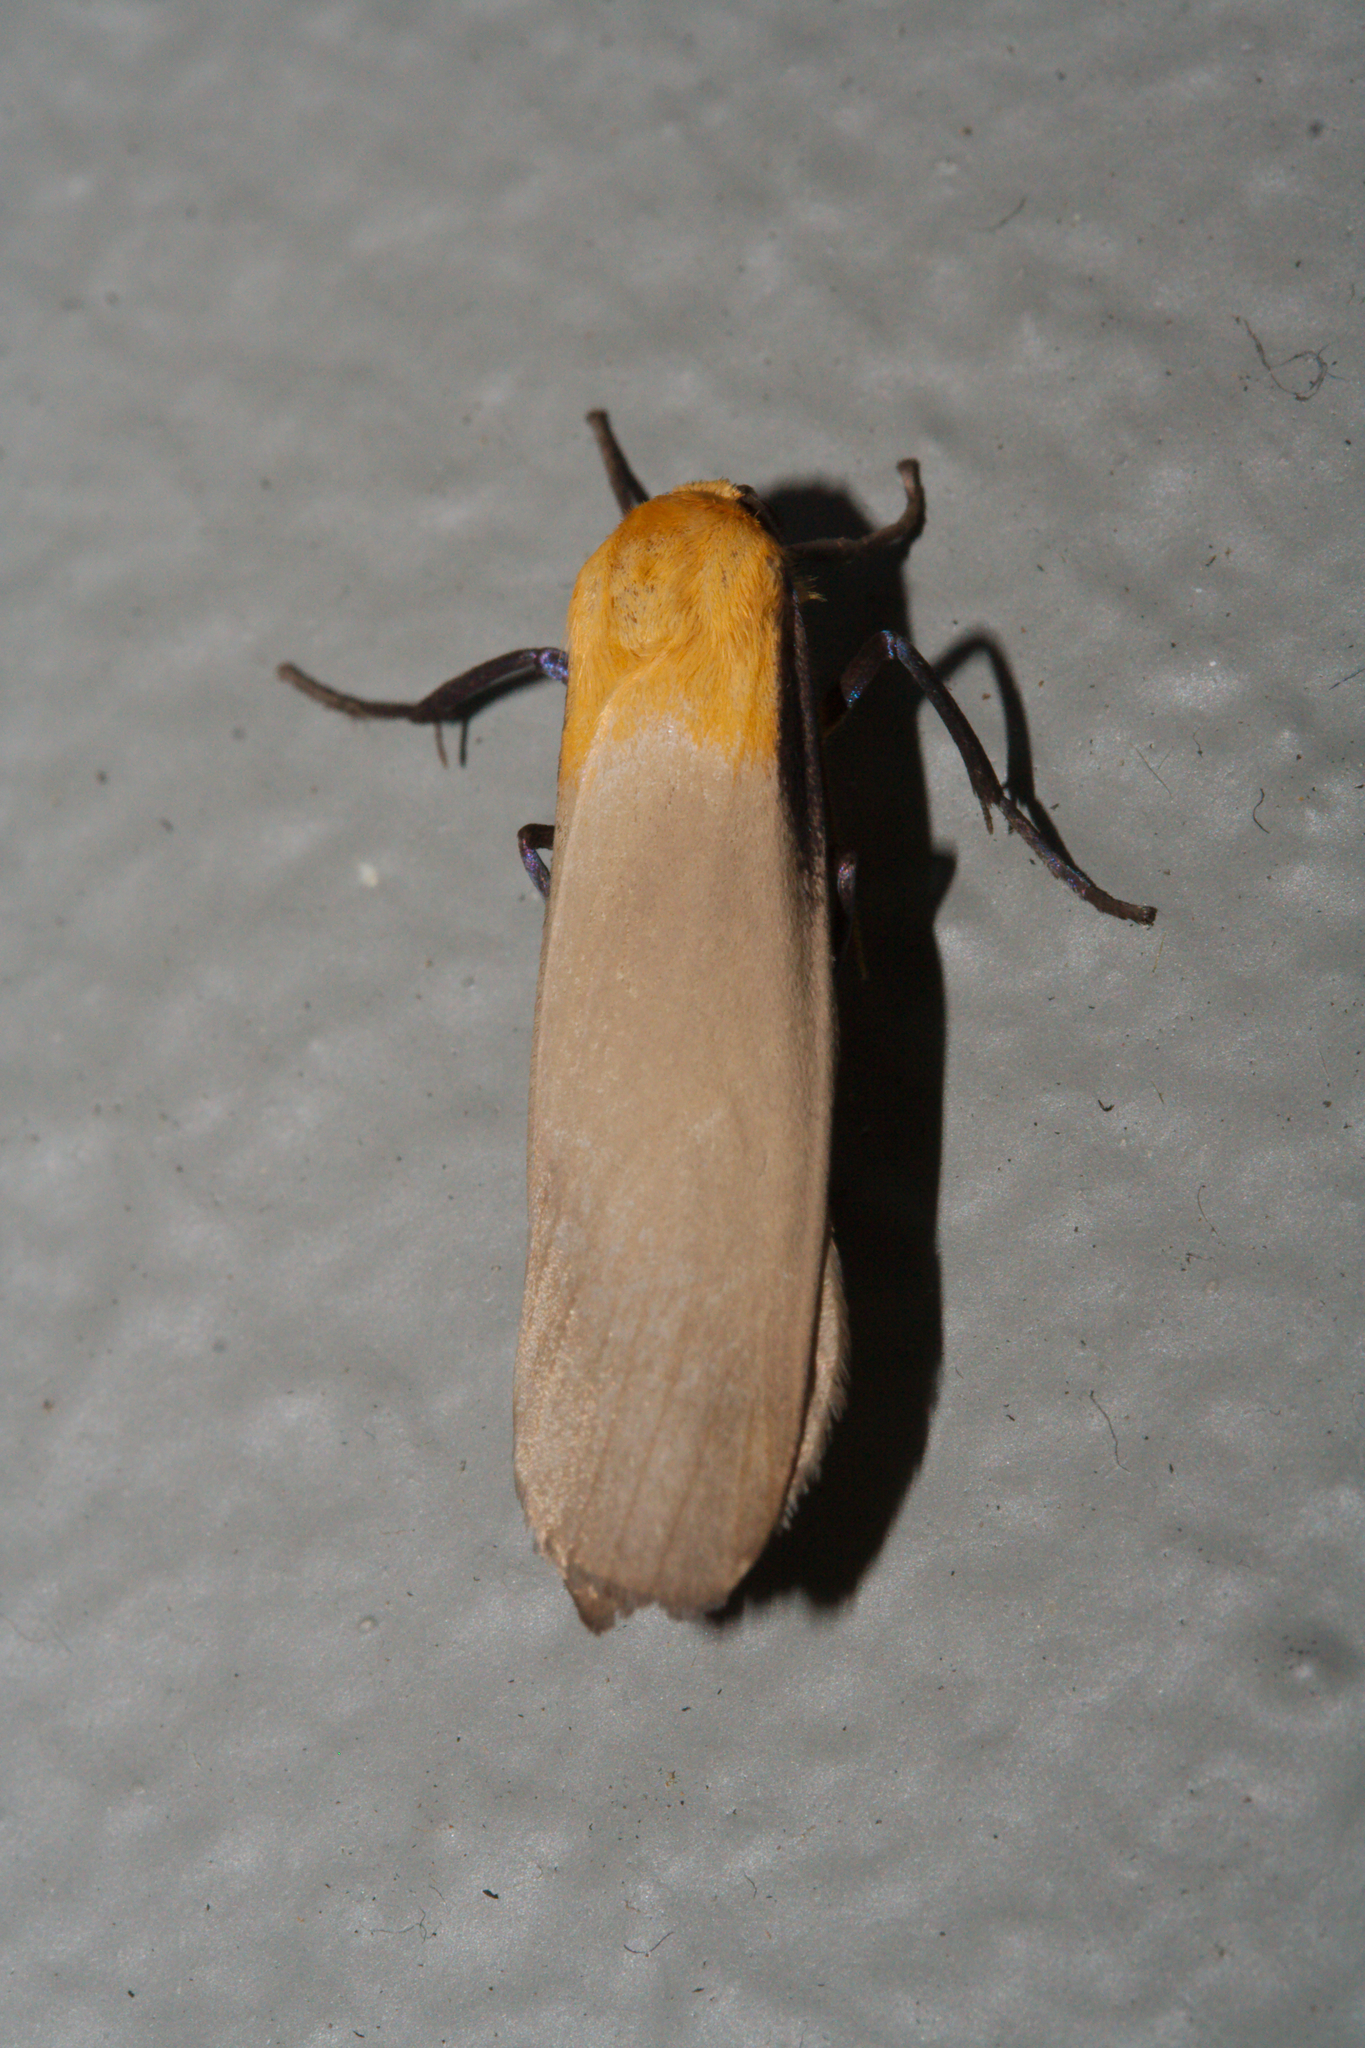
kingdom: Animalia
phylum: Arthropoda
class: Insecta
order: Lepidoptera
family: Erebidae
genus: Lithosia
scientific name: Lithosia quadra
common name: Four-spotted footman
